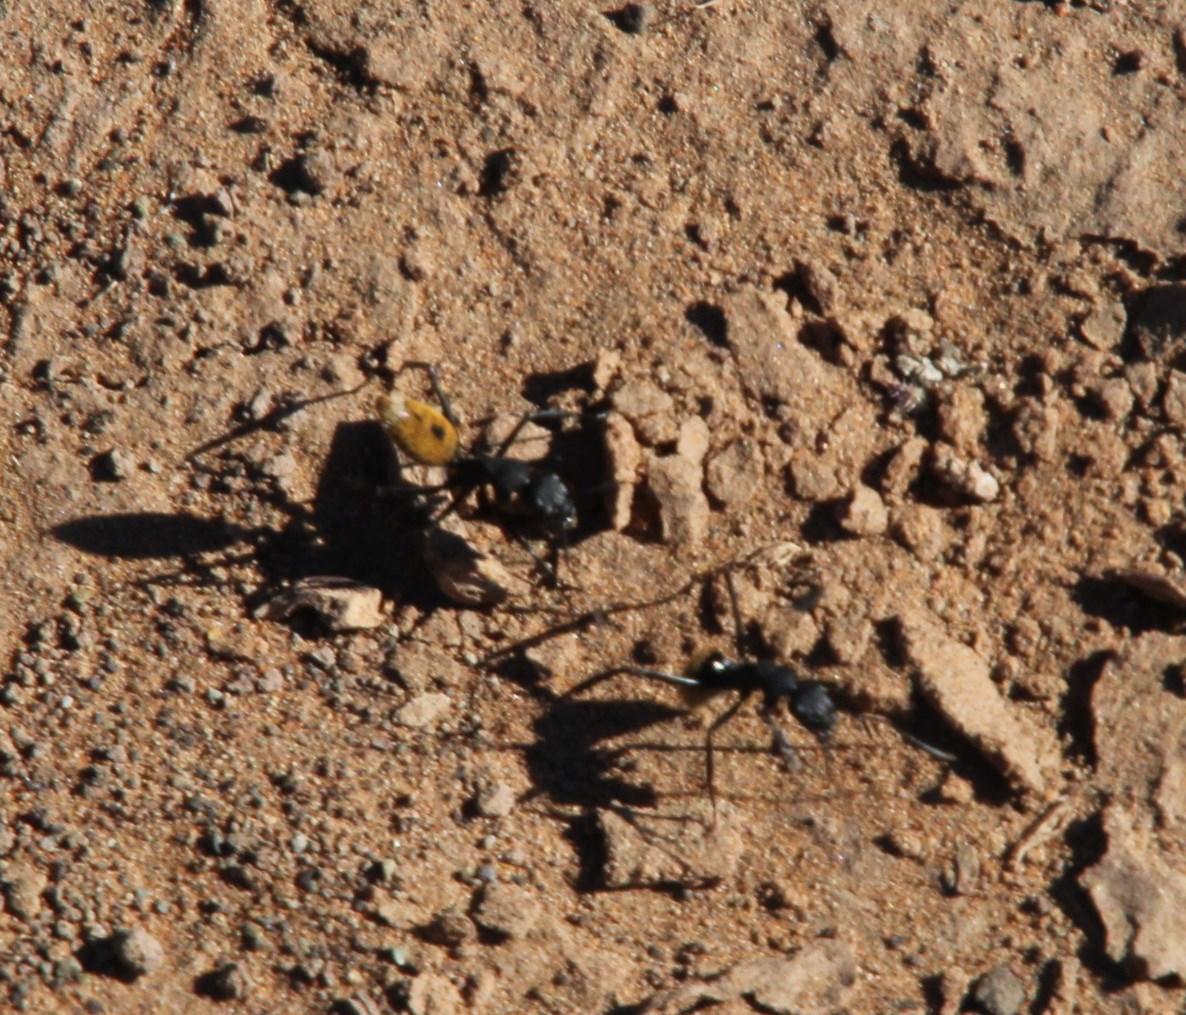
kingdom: Animalia
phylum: Arthropoda
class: Insecta
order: Hymenoptera
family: Formicidae
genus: Camponotus
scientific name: Camponotus fulvopilosus
